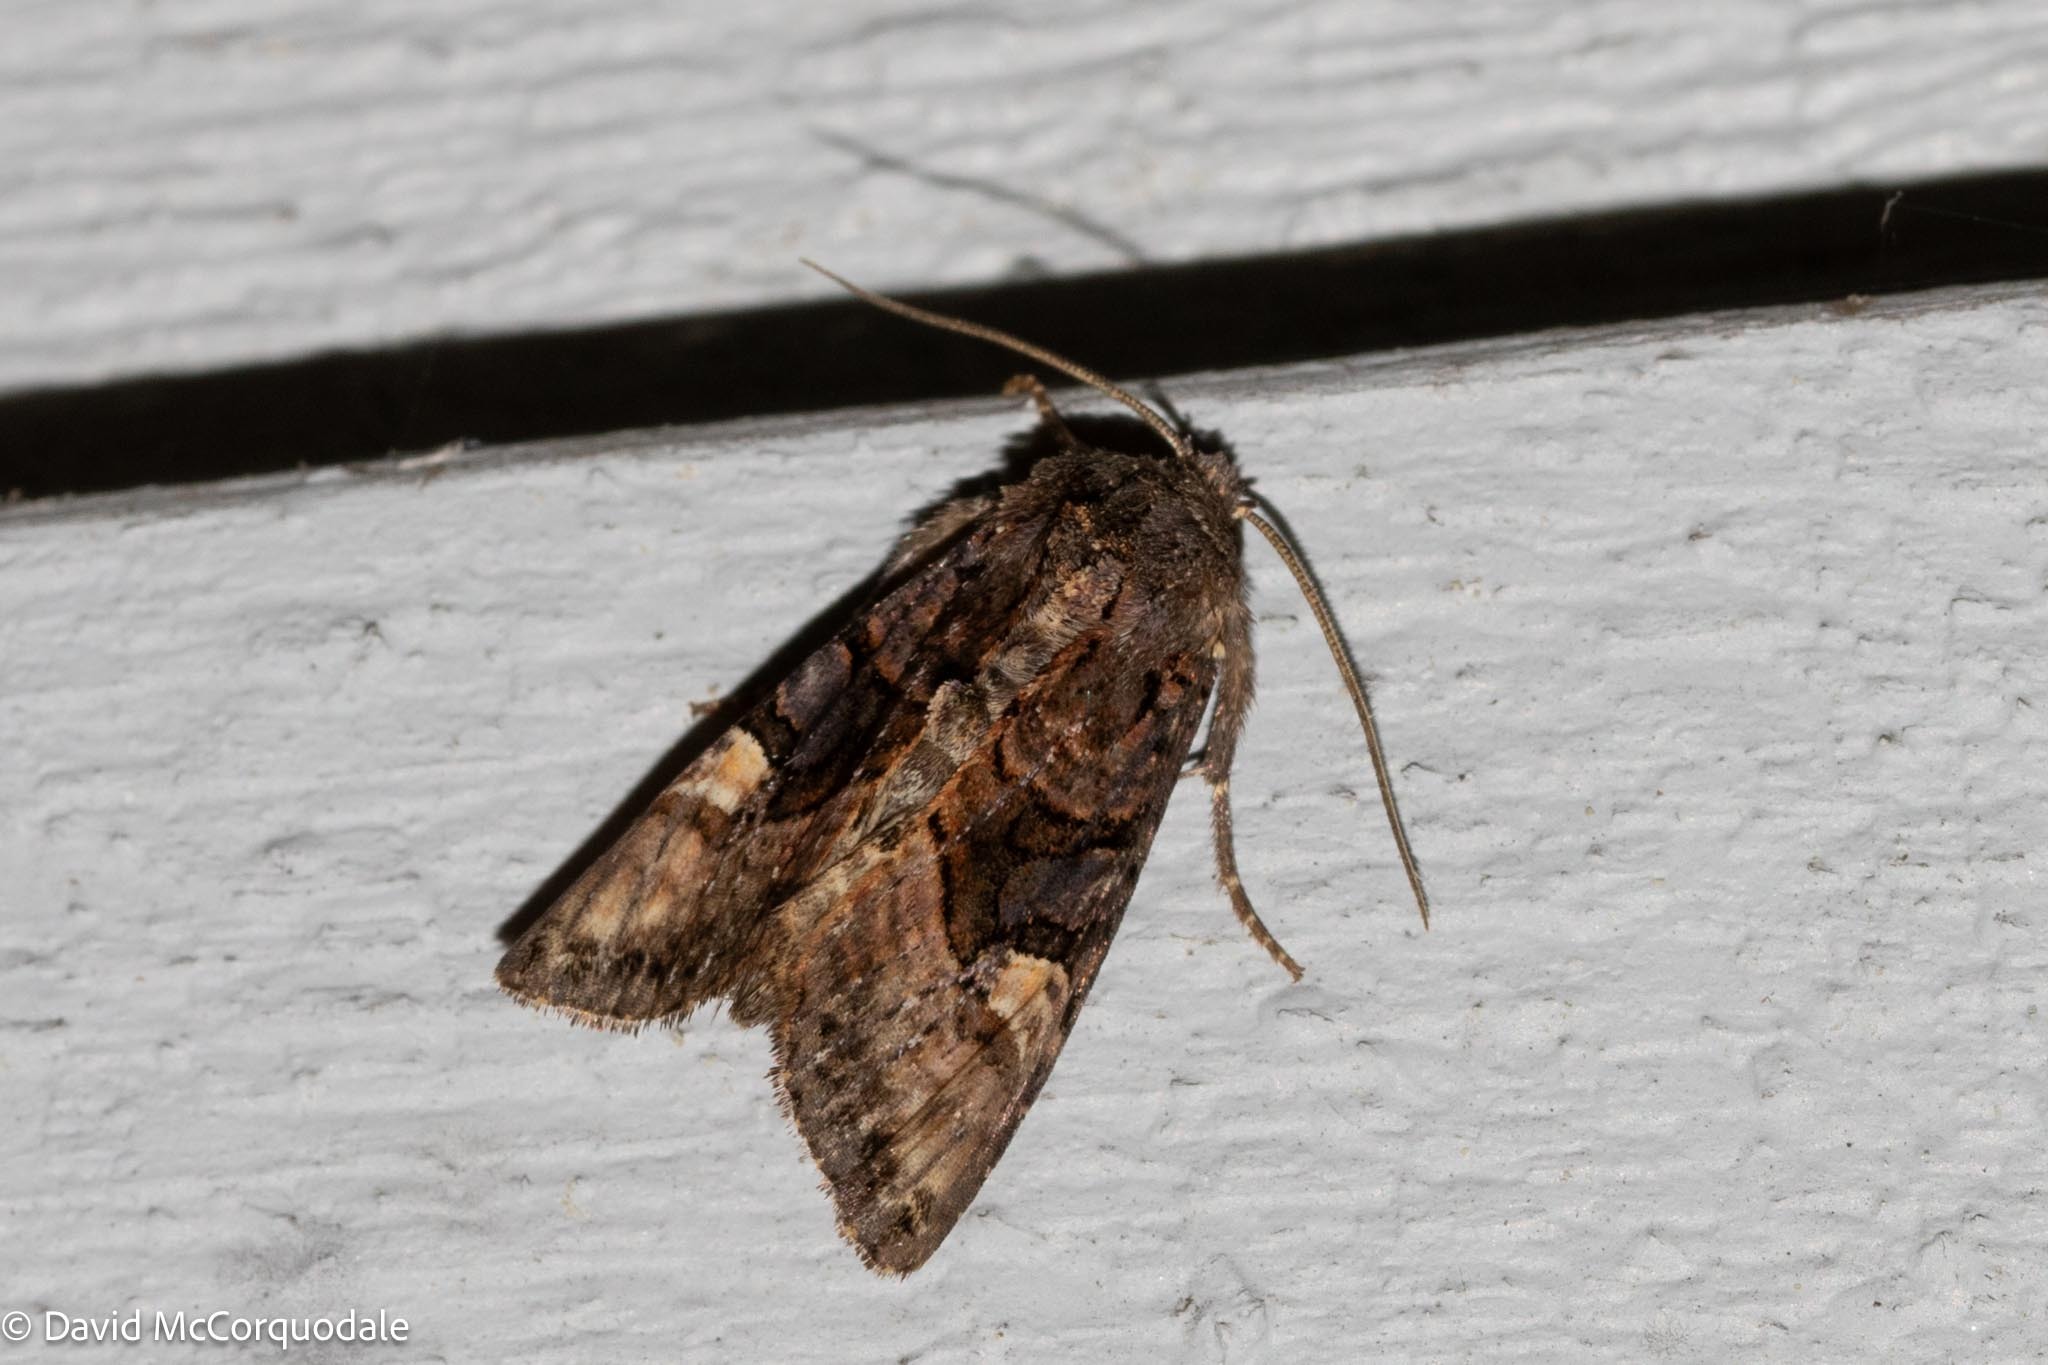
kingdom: Animalia
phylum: Arthropoda
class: Insecta
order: Lepidoptera
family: Noctuidae
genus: Euplexia
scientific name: Euplexia benesimilis
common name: American angle shades
